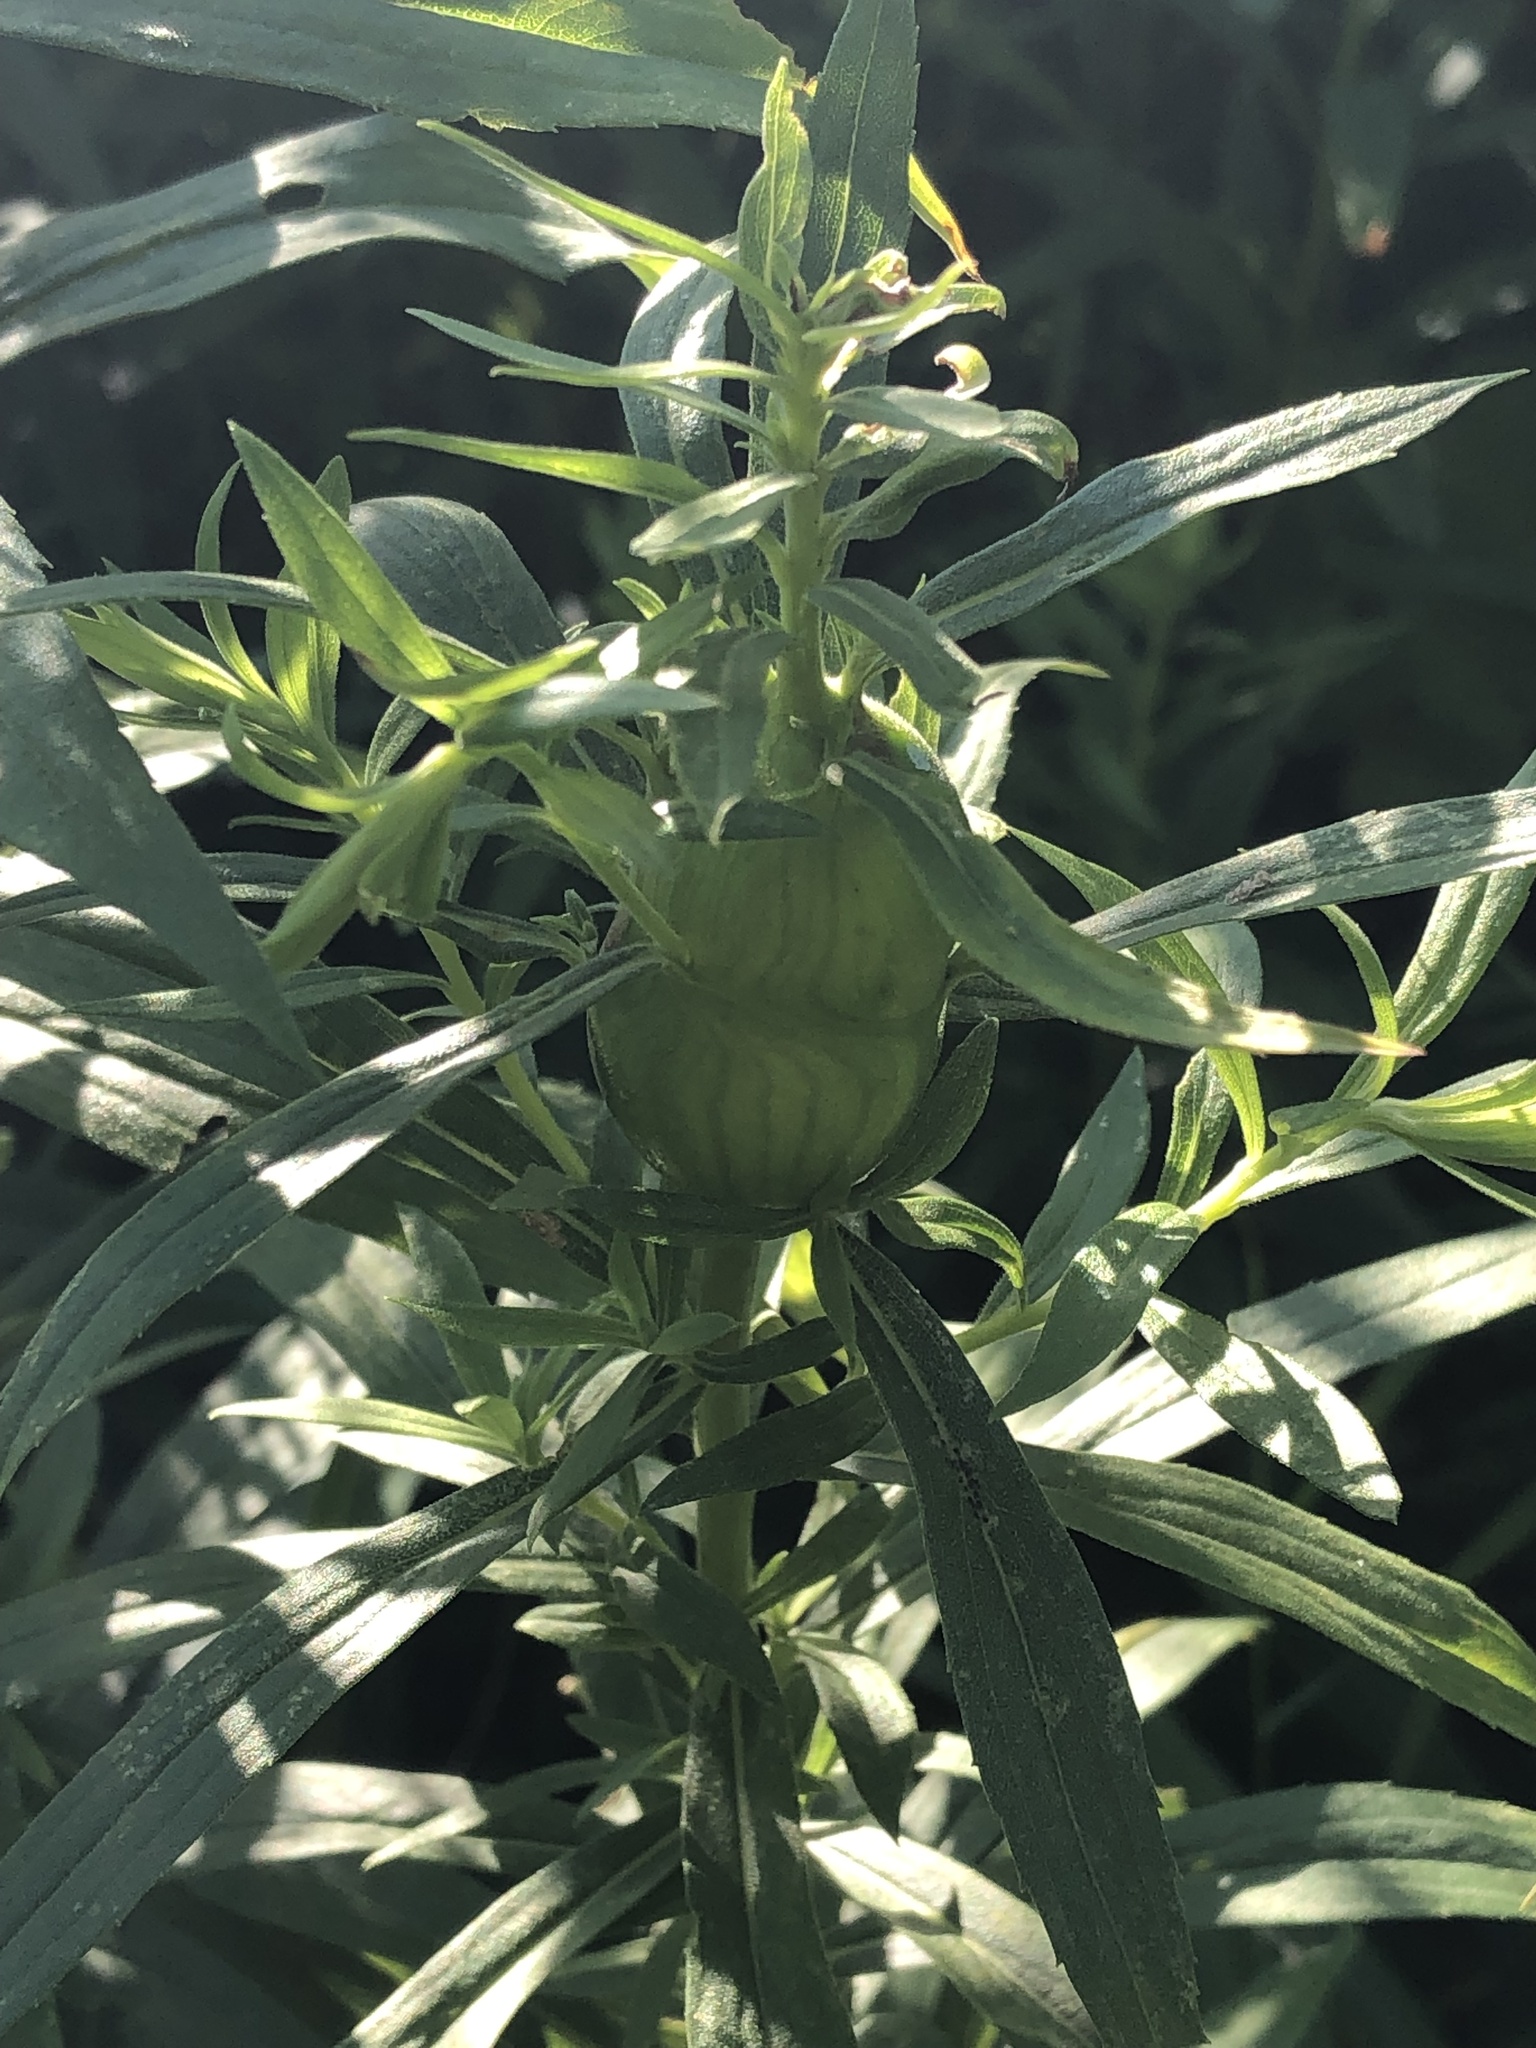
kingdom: Animalia
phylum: Arthropoda
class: Insecta
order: Diptera
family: Tephritidae
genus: Eurosta
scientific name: Eurosta solidaginis
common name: Goldenrod gall fly
